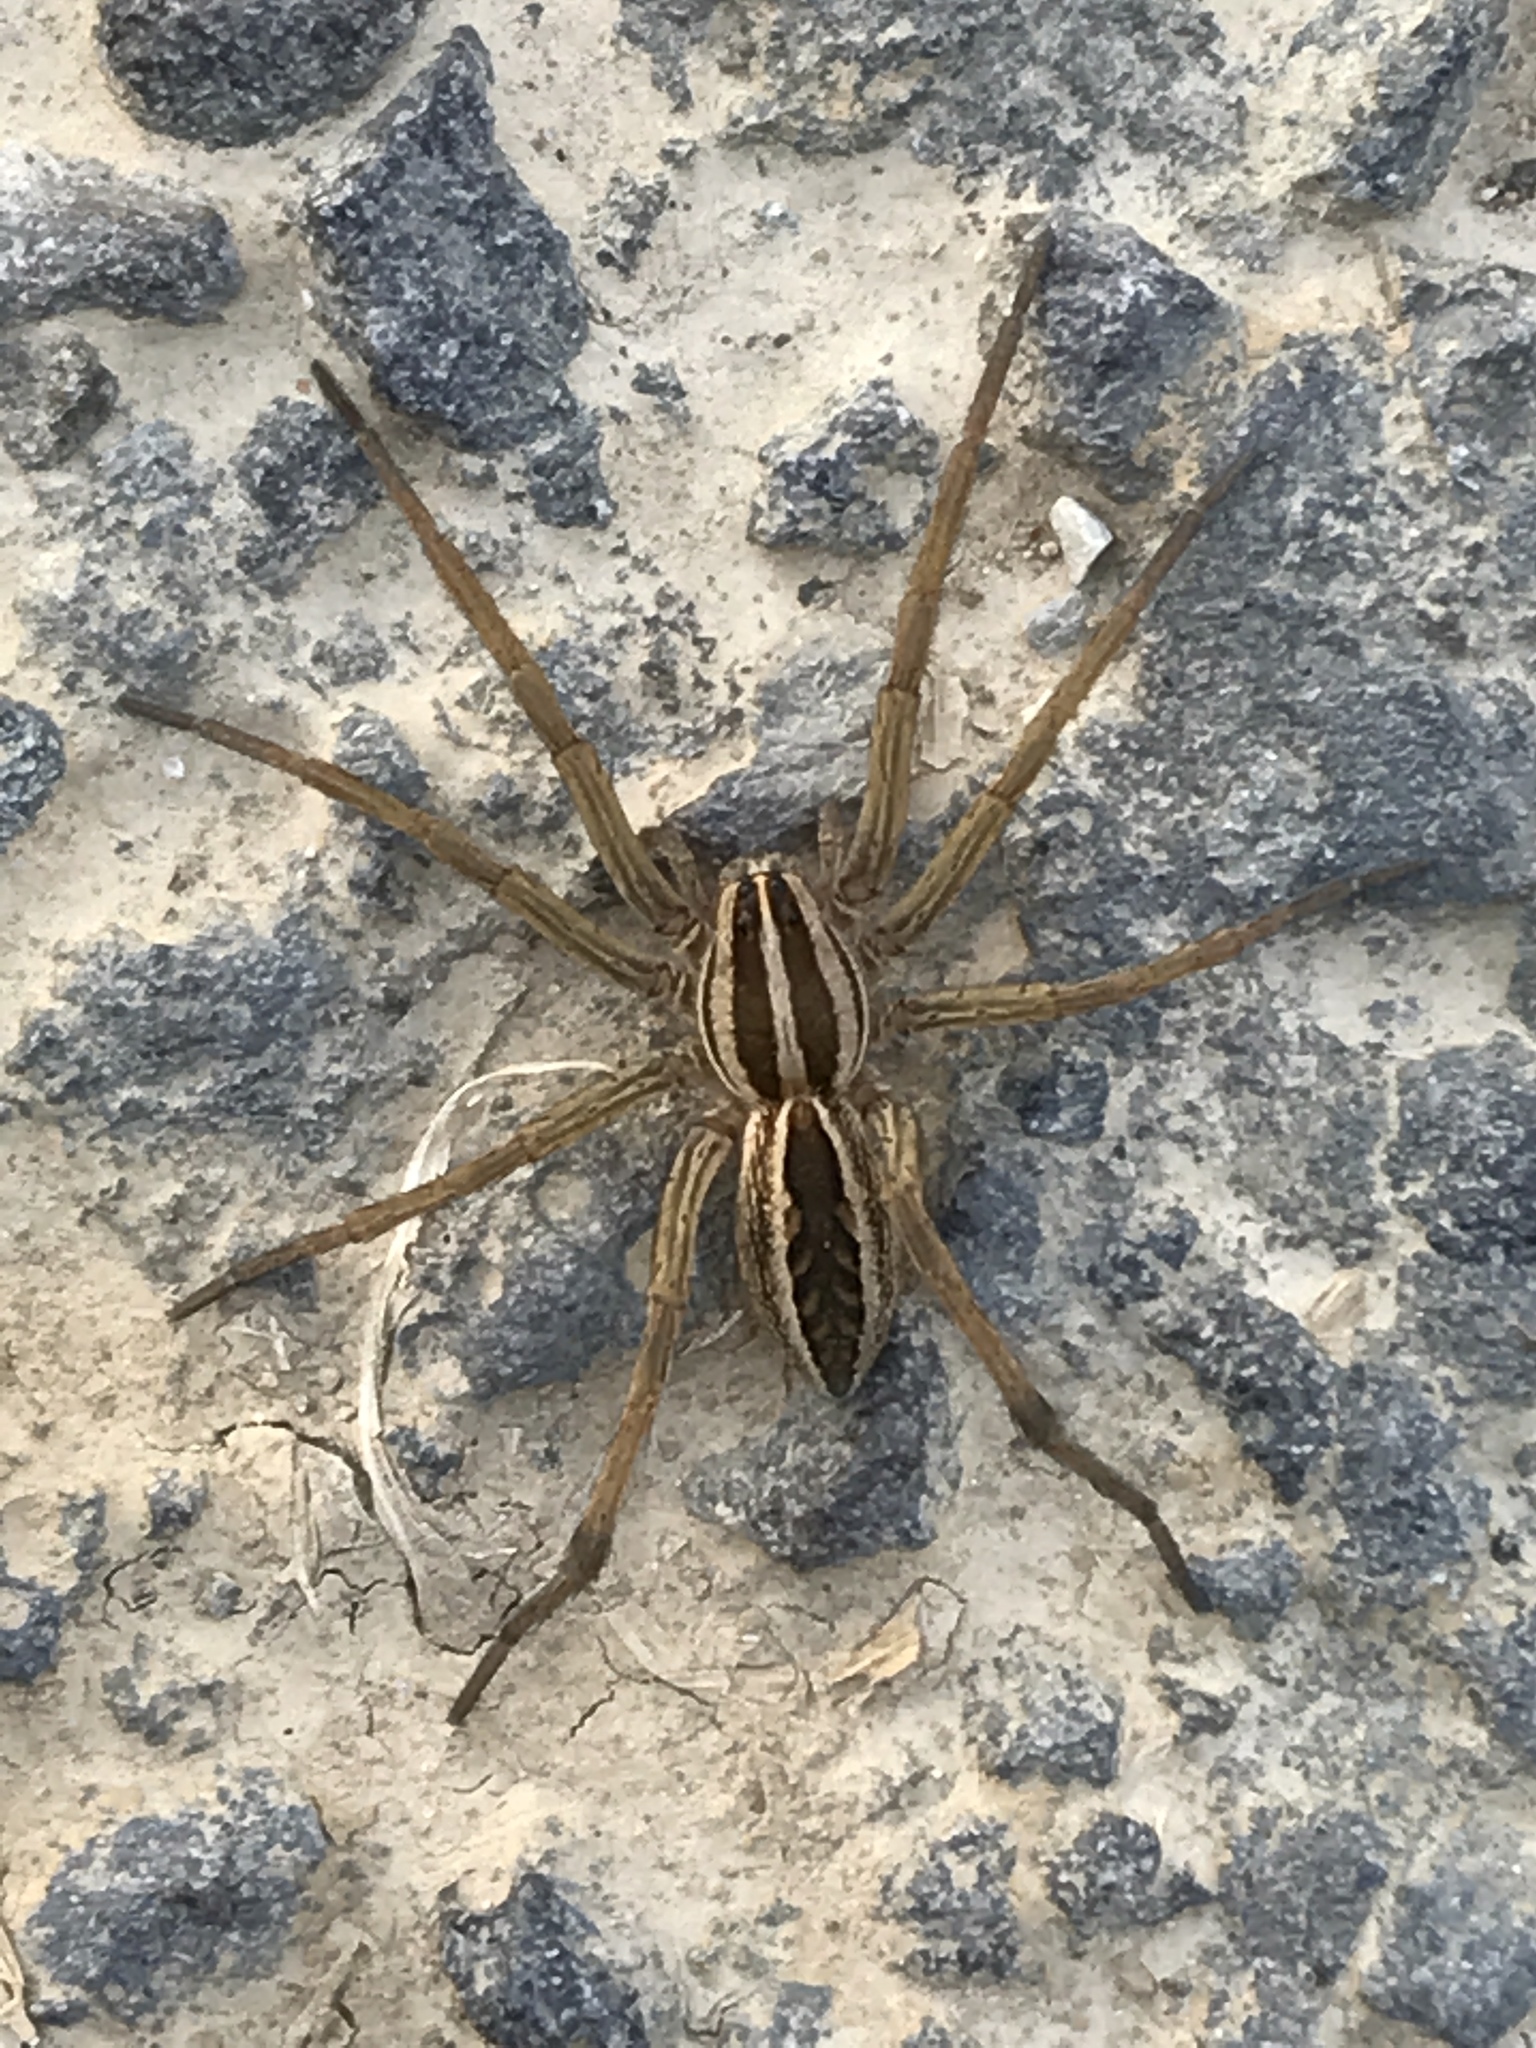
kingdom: Animalia
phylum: Arthropoda
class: Arachnida
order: Araneae
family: Lycosidae
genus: Rabidosa
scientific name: Rabidosa rabida
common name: Rabid wolf spider
